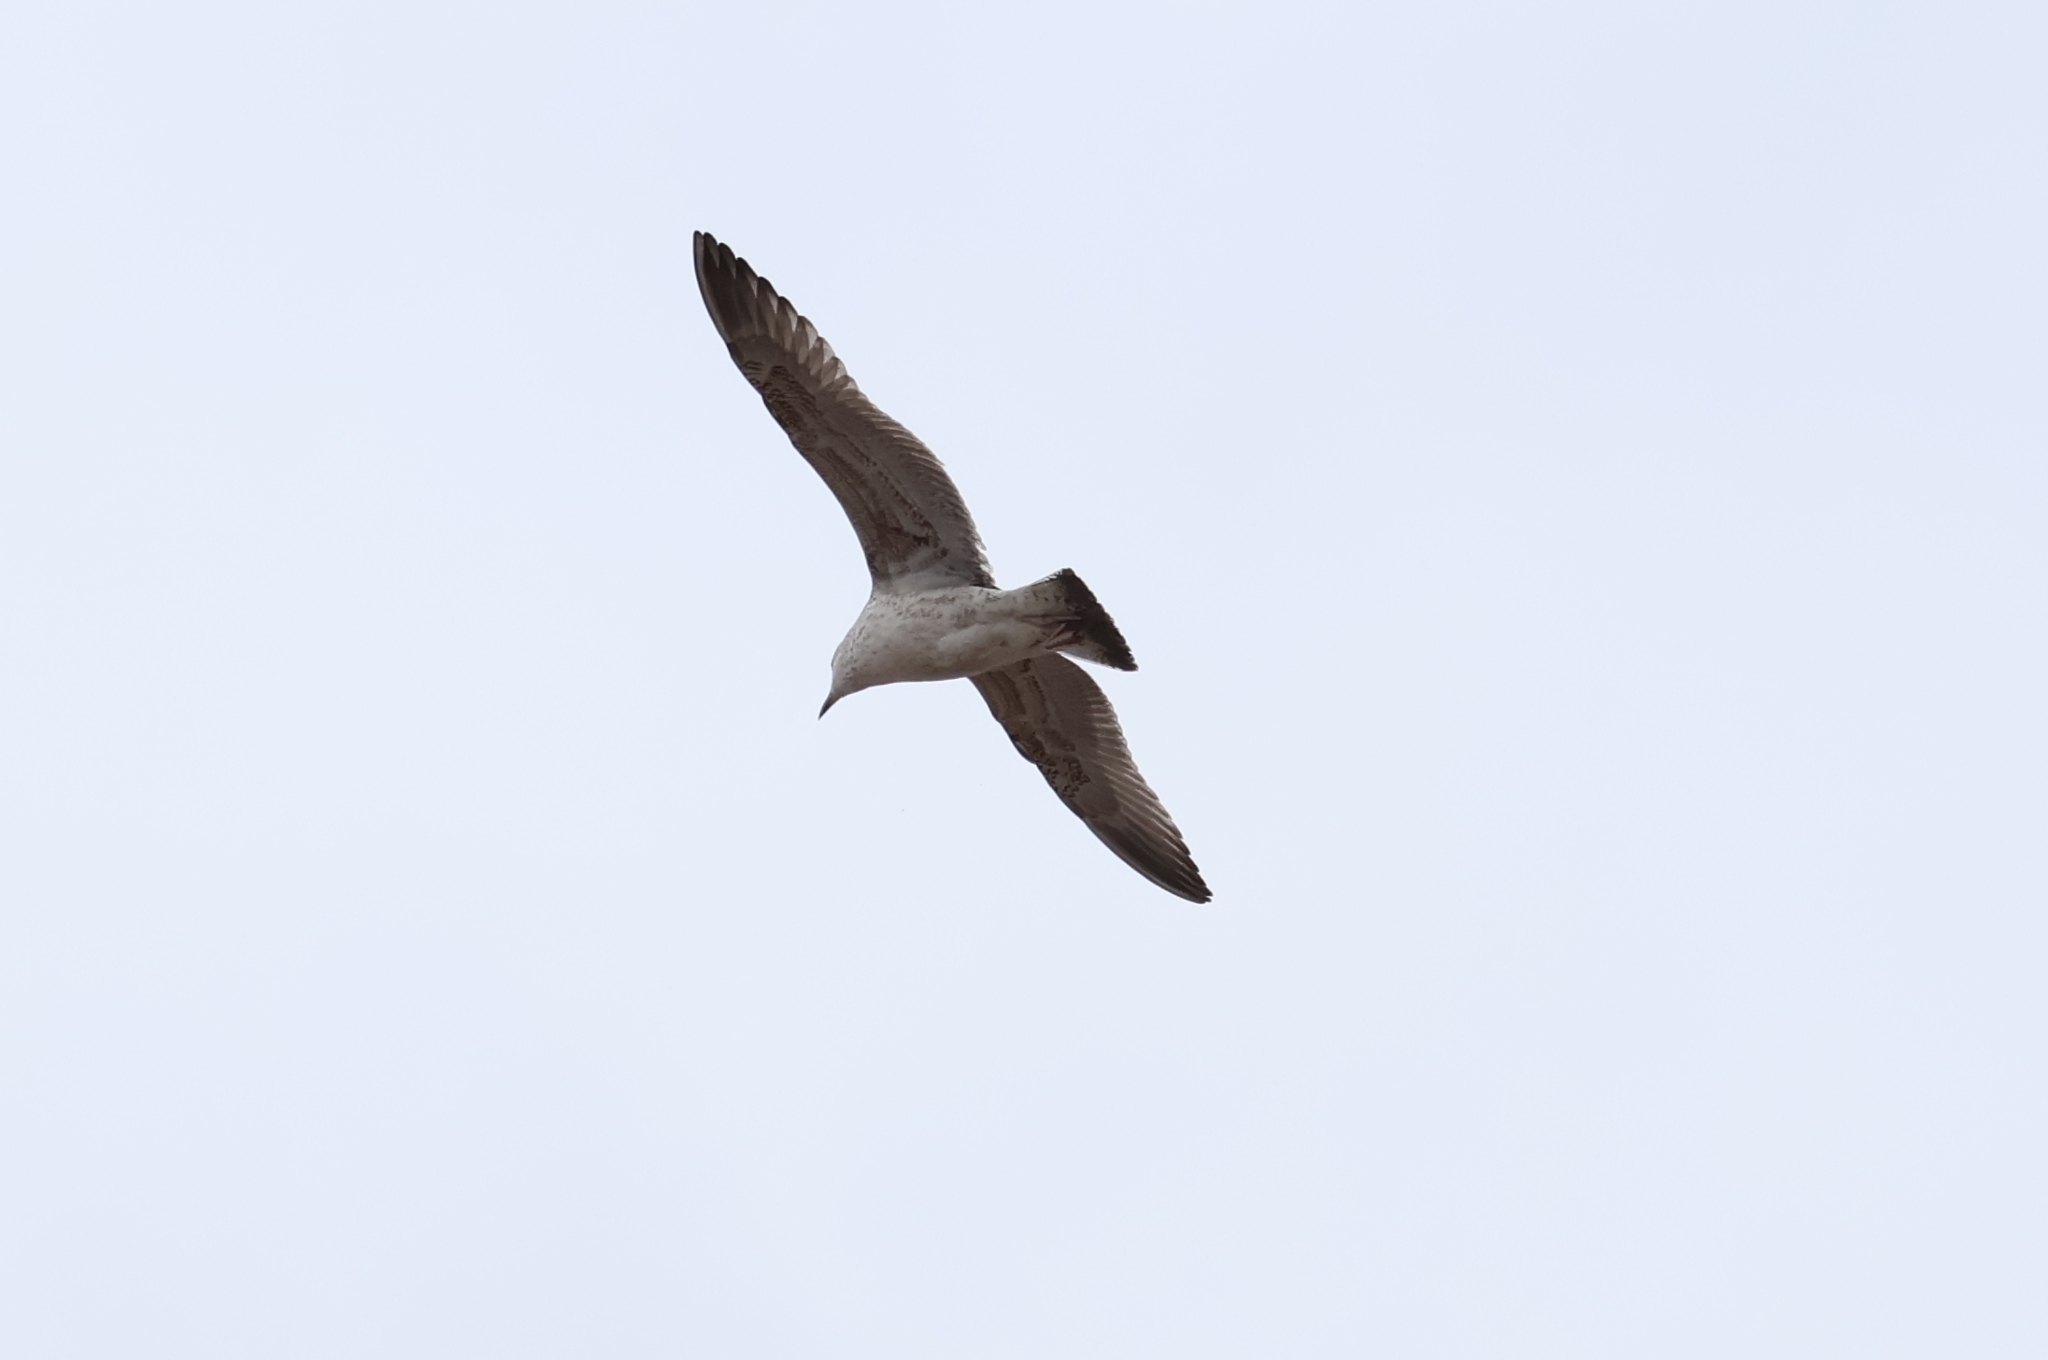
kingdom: Animalia
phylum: Chordata
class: Aves
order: Charadriiformes
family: Laridae
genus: Larus
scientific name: Larus argentatus
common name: Herring gull
